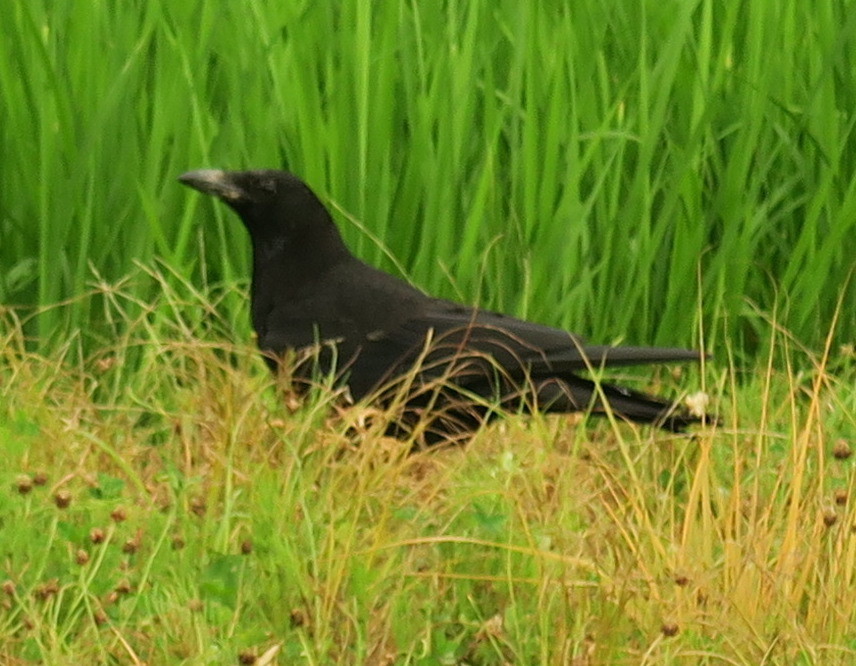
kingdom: Animalia
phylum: Chordata
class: Aves
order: Passeriformes
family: Corvidae
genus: Corvus
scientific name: Corvus corone
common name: Carrion crow
